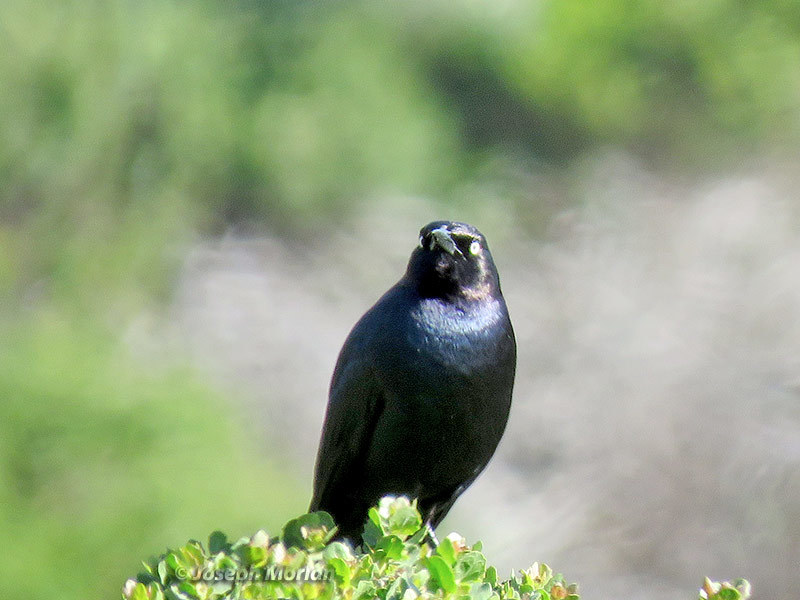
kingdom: Animalia
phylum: Chordata
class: Aves
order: Passeriformes
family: Icteridae
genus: Euphagus
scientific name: Euphagus cyanocephalus
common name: Brewer's blackbird
